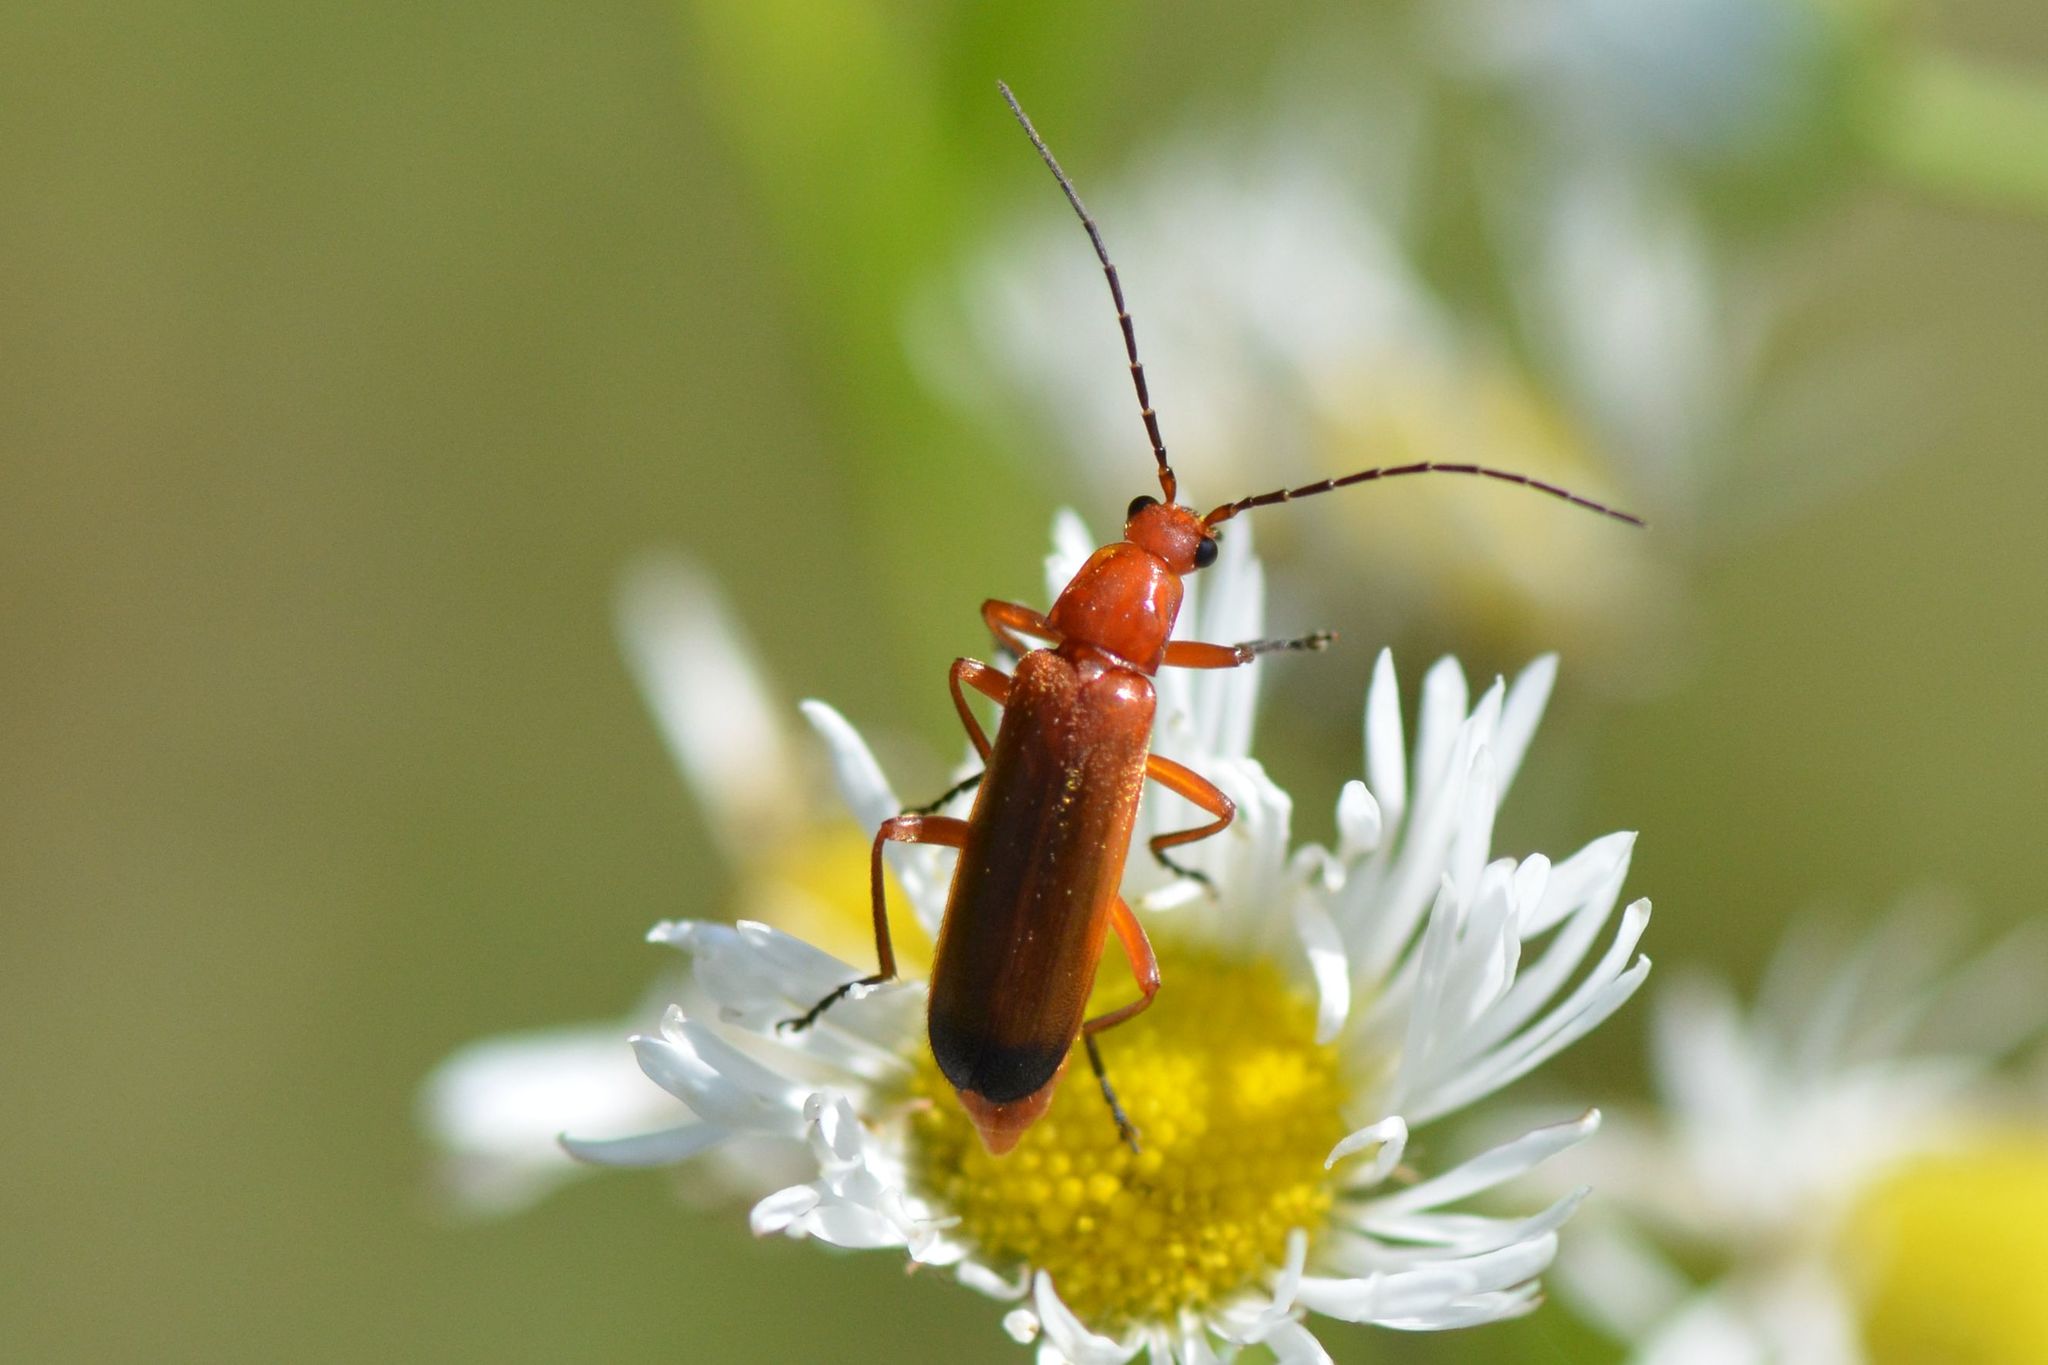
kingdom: Animalia
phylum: Arthropoda
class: Insecta
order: Coleoptera
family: Cantharidae
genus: Rhagonycha
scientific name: Rhagonycha fulva
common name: Common red soldier beetle
